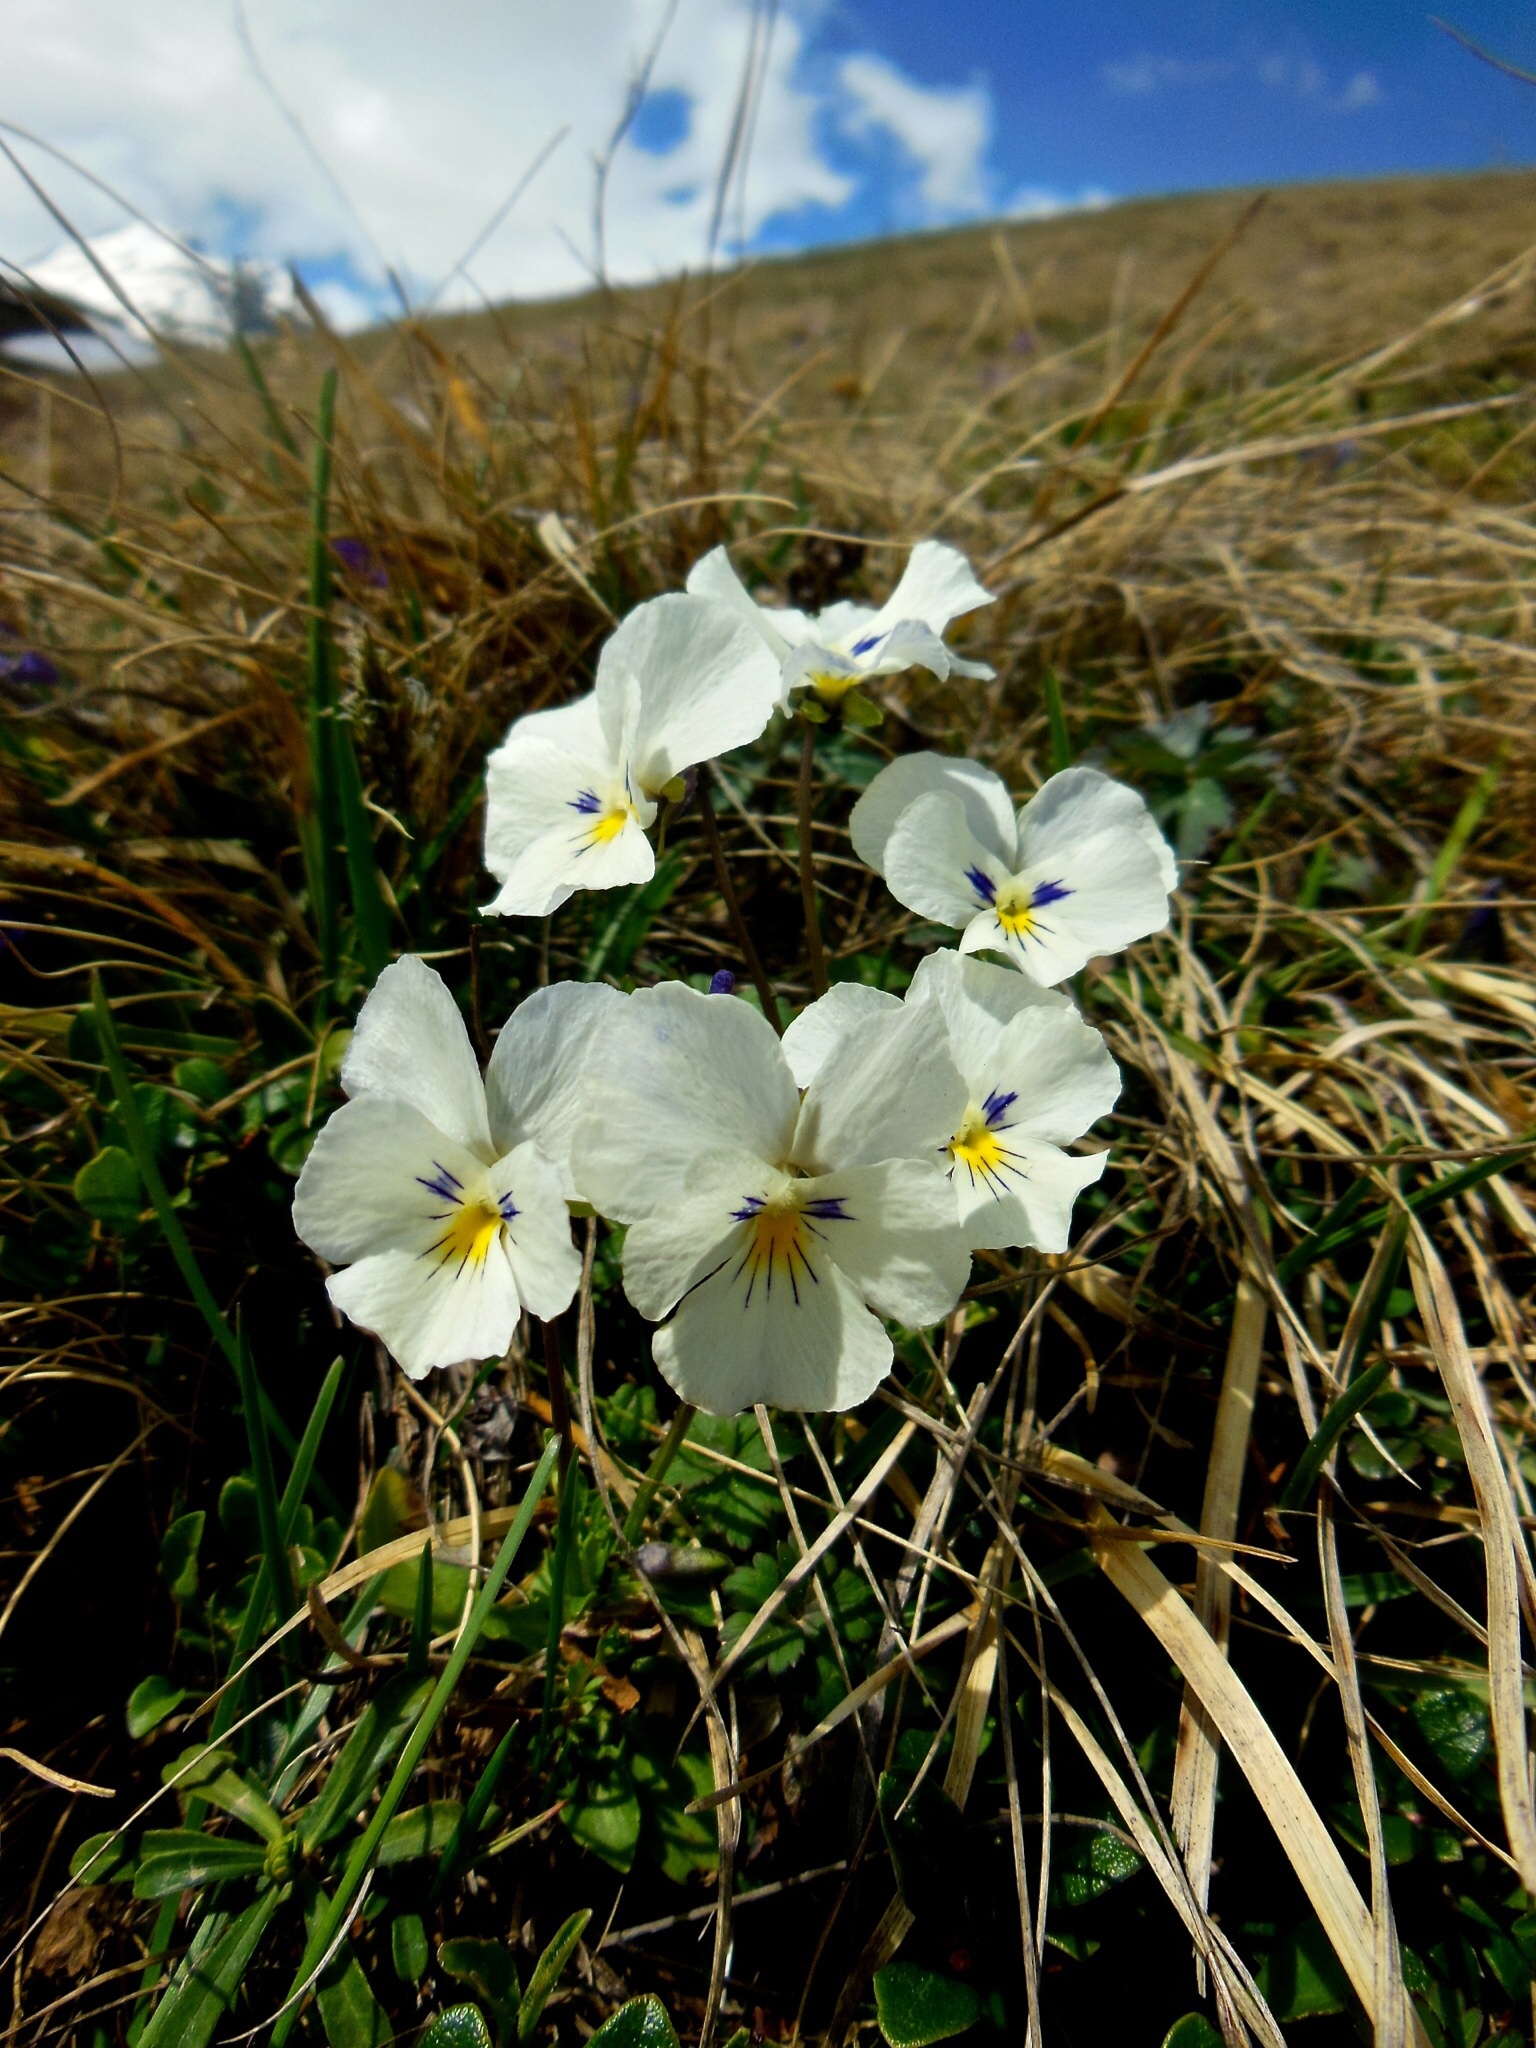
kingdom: Plantae
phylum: Tracheophyta
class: Magnoliopsida
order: Malpighiales
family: Violaceae
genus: Viola
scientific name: Viola calcarata
